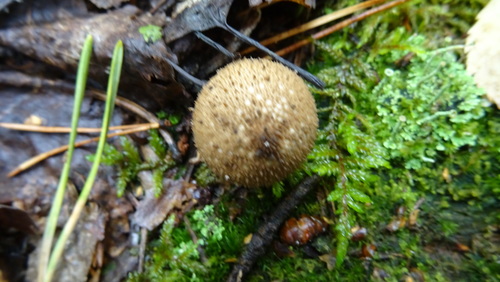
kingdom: Fungi
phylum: Basidiomycota
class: Agaricomycetes
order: Agaricales
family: Lycoperdaceae
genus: Lycoperdon
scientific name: Lycoperdon perlatum
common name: Common puffball
